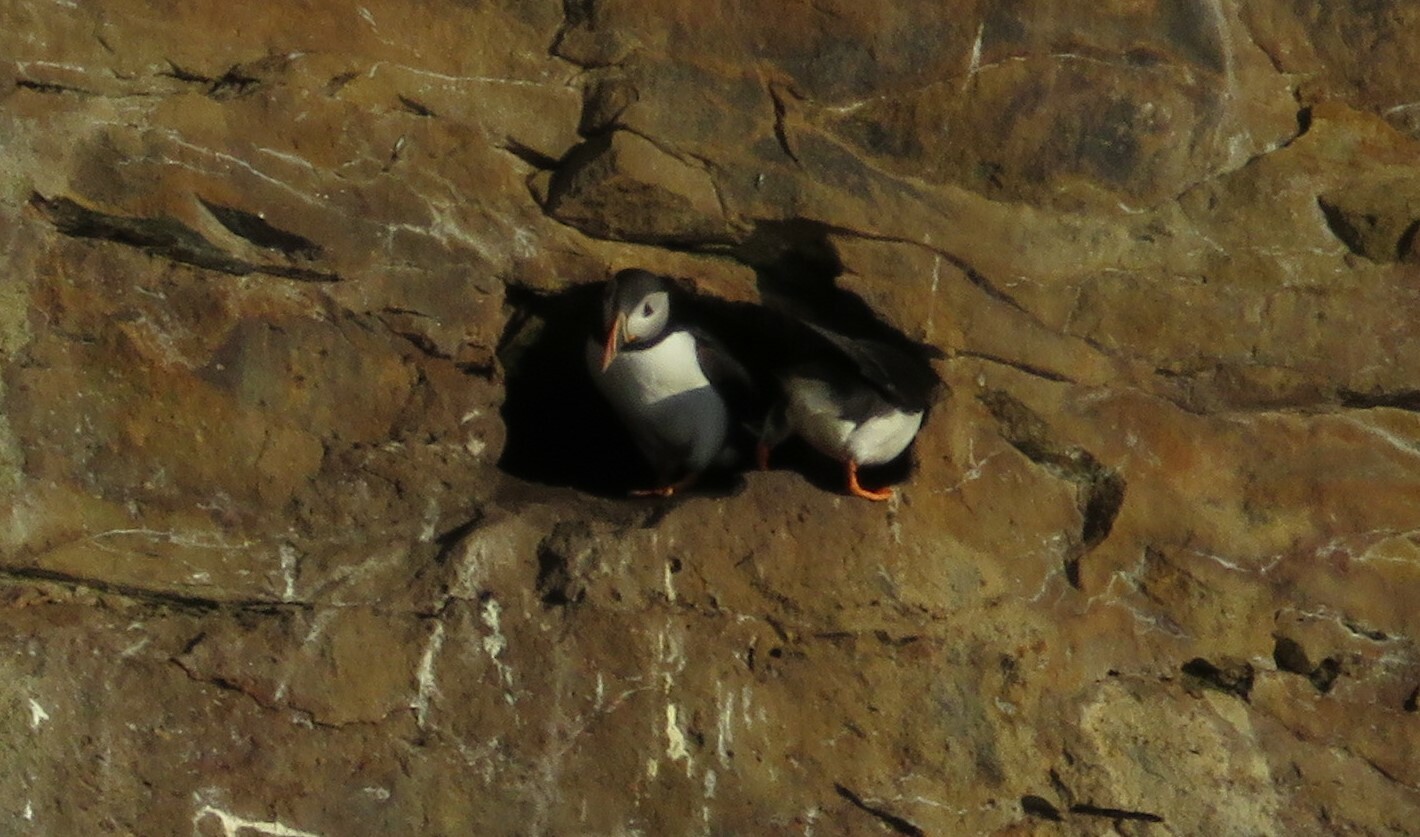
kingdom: Animalia
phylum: Chordata
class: Aves
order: Charadriiformes
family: Alcidae
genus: Fratercula
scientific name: Fratercula arctica
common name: Atlantic puffin
